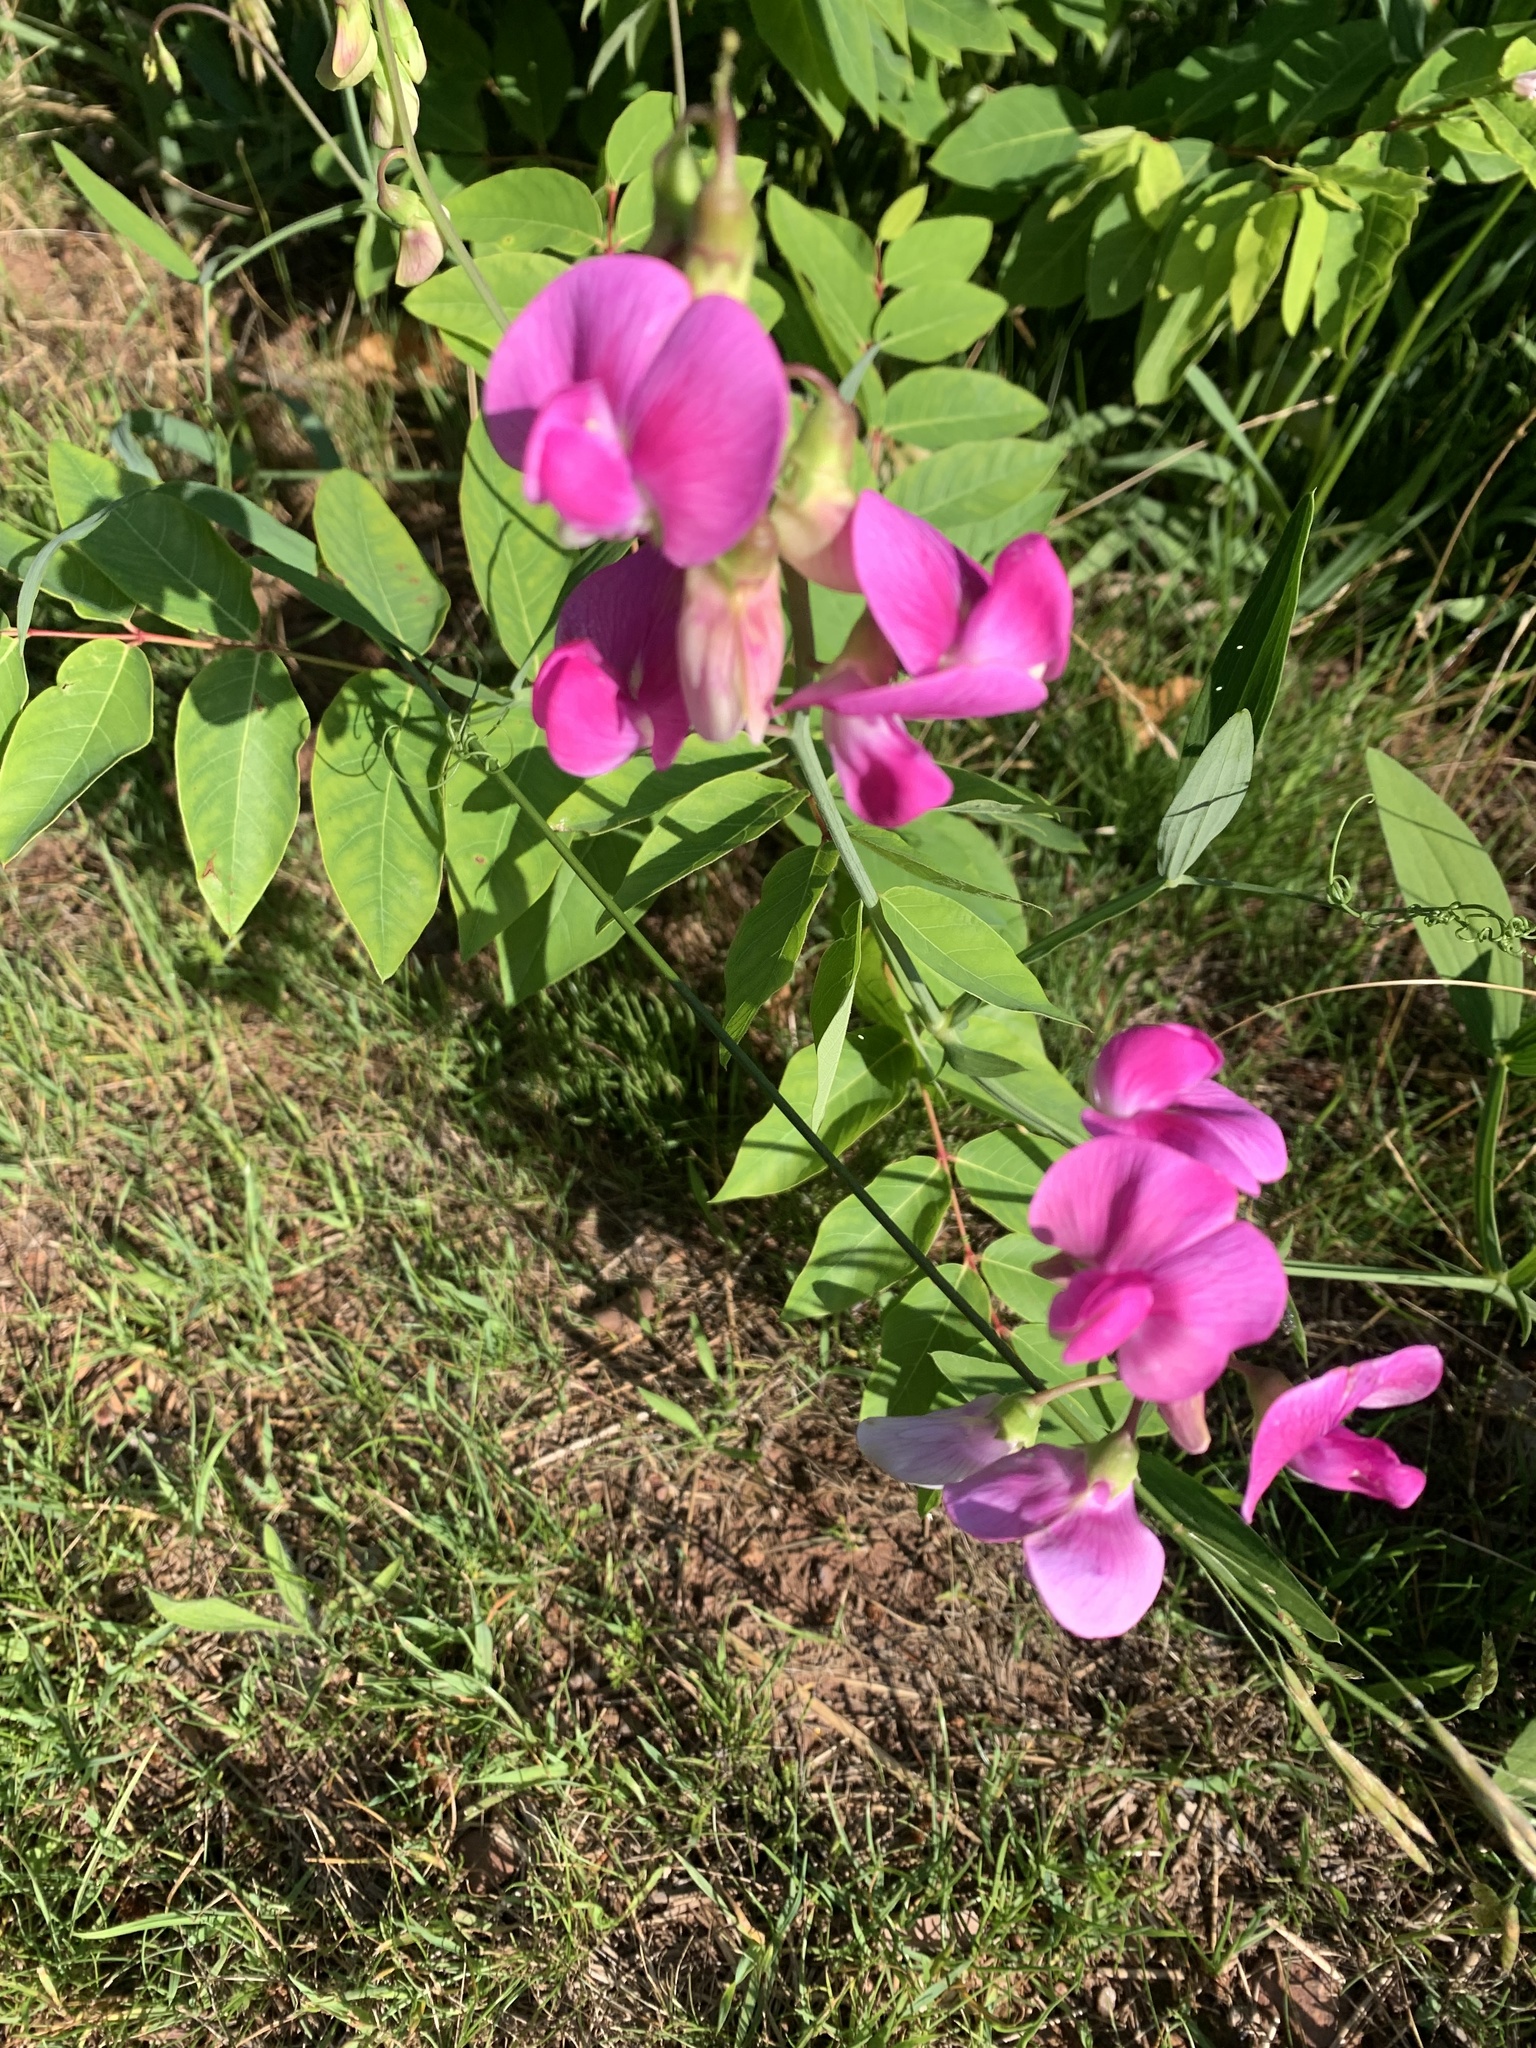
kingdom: Plantae
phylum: Tracheophyta
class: Magnoliopsida
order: Fabales
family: Fabaceae
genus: Lathyrus
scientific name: Lathyrus latifolius
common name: Perennial pea
